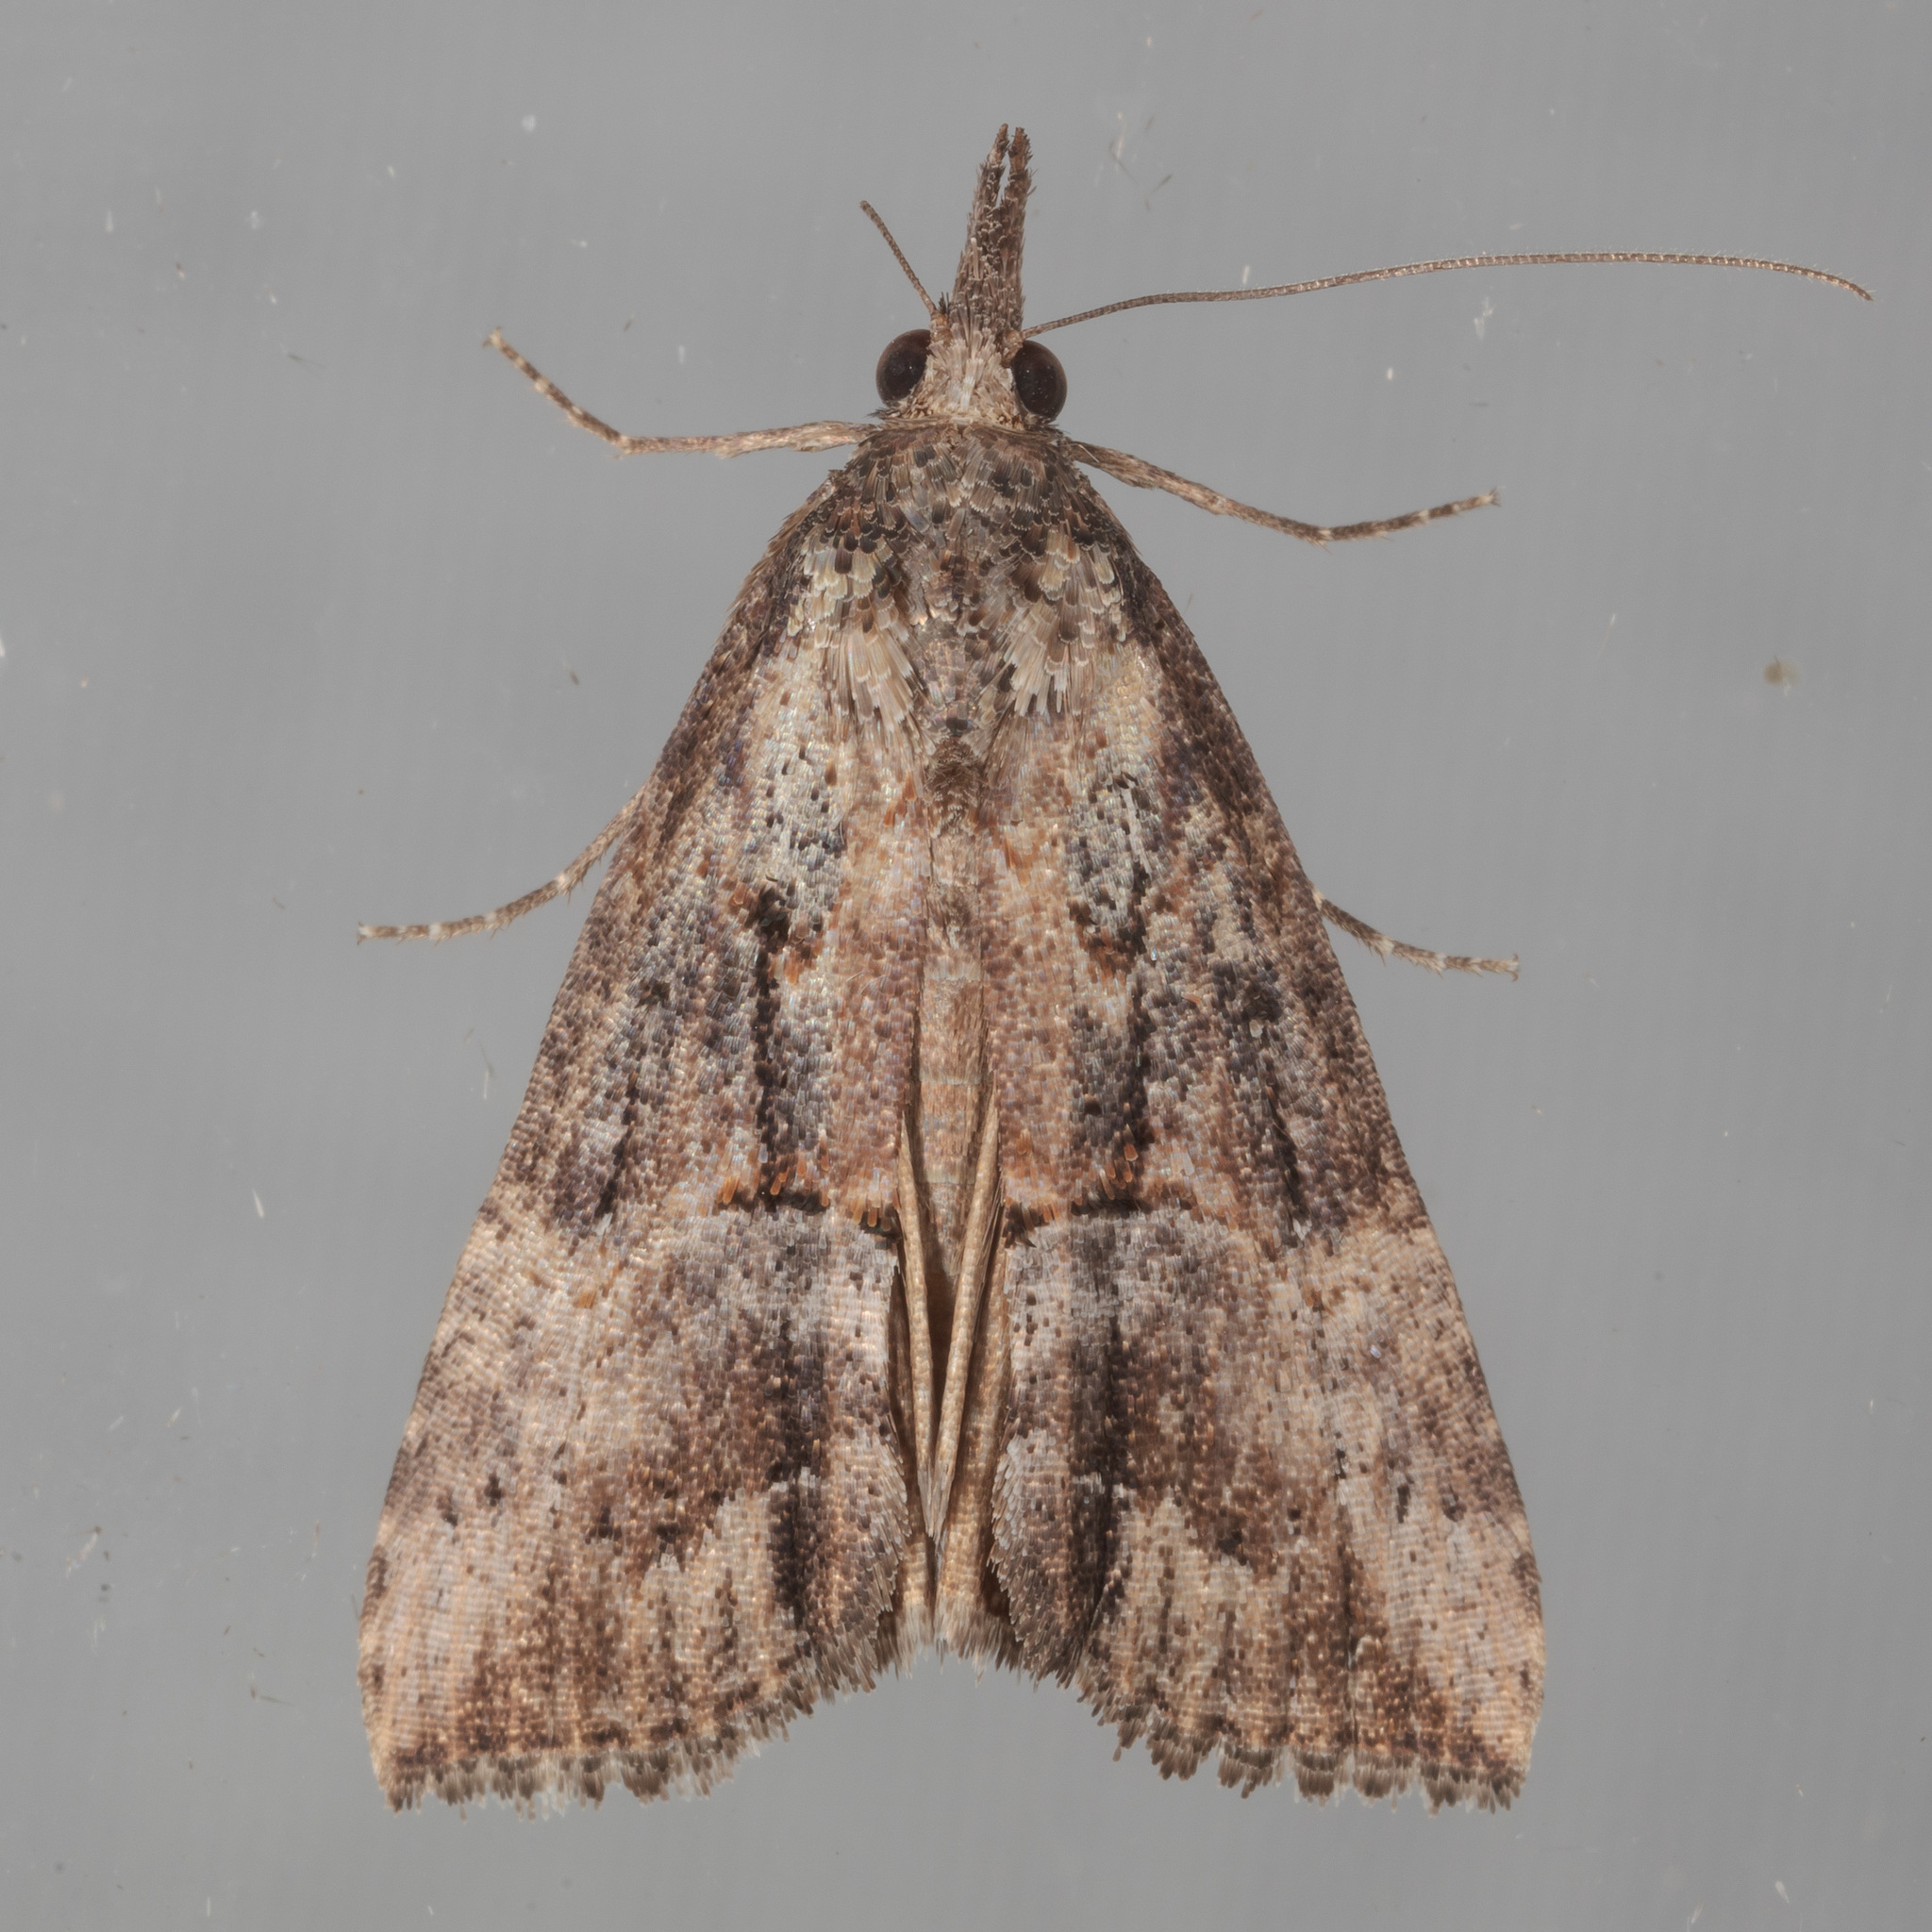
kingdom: Animalia
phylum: Arthropoda
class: Insecta
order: Lepidoptera
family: Erebidae
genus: Hypena
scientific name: Hypena scabra
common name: Green cloverworm
